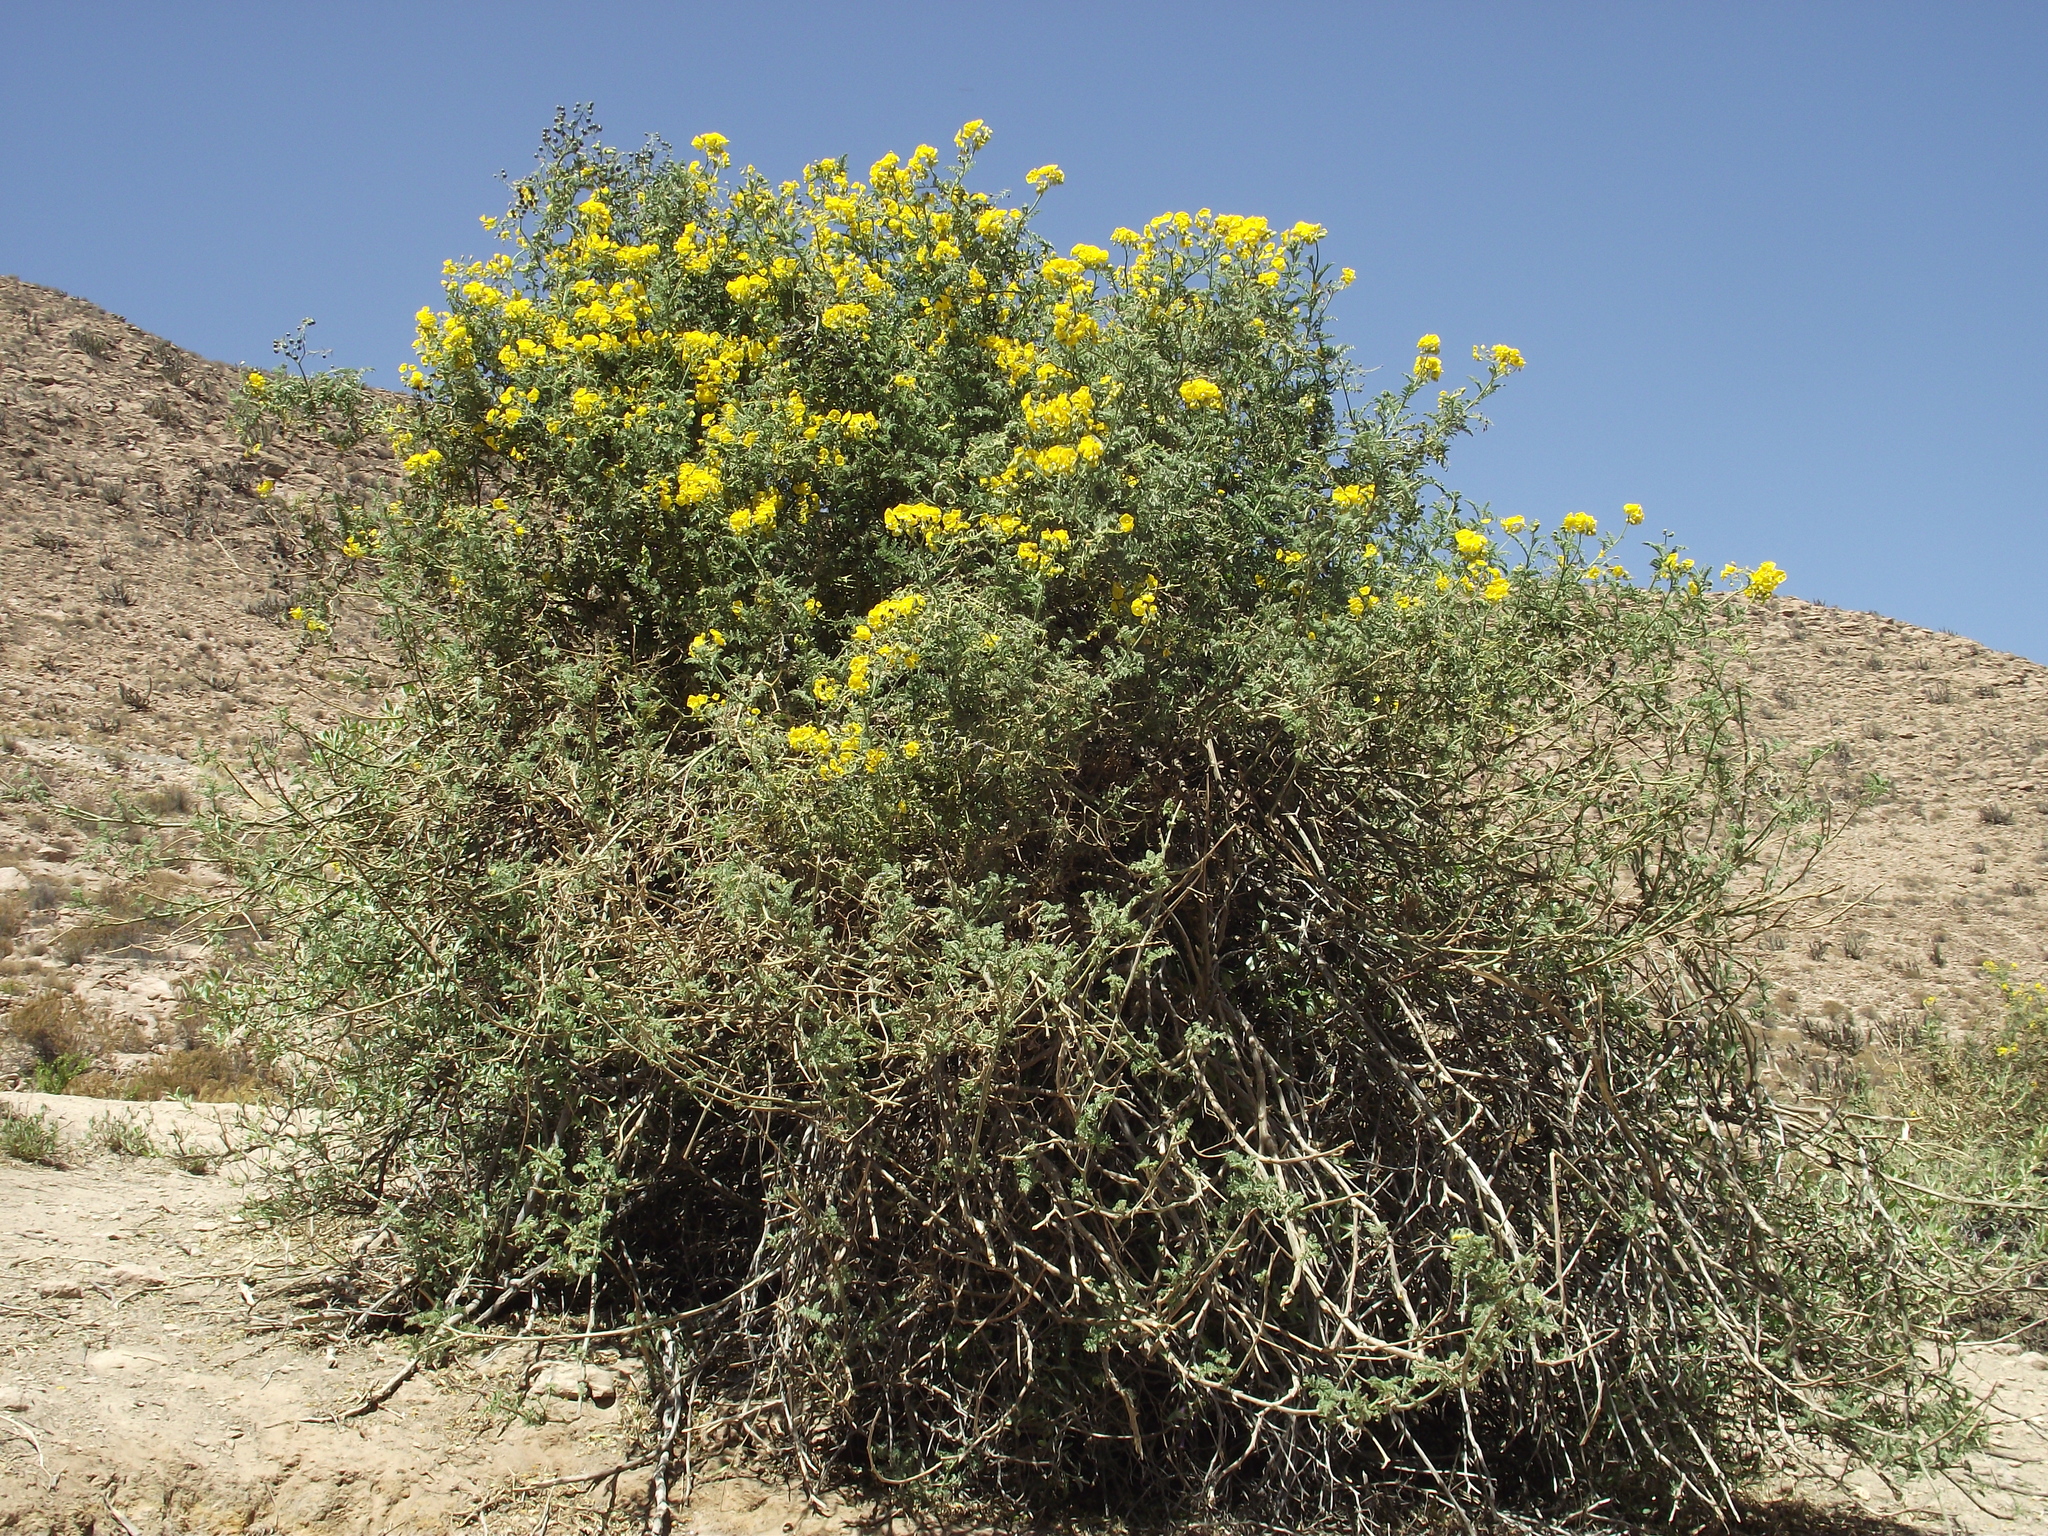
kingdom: Plantae
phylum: Tracheophyta
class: Magnoliopsida
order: Solanales
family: Solanaceae
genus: Solanum
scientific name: Solanum lycopersicoides
